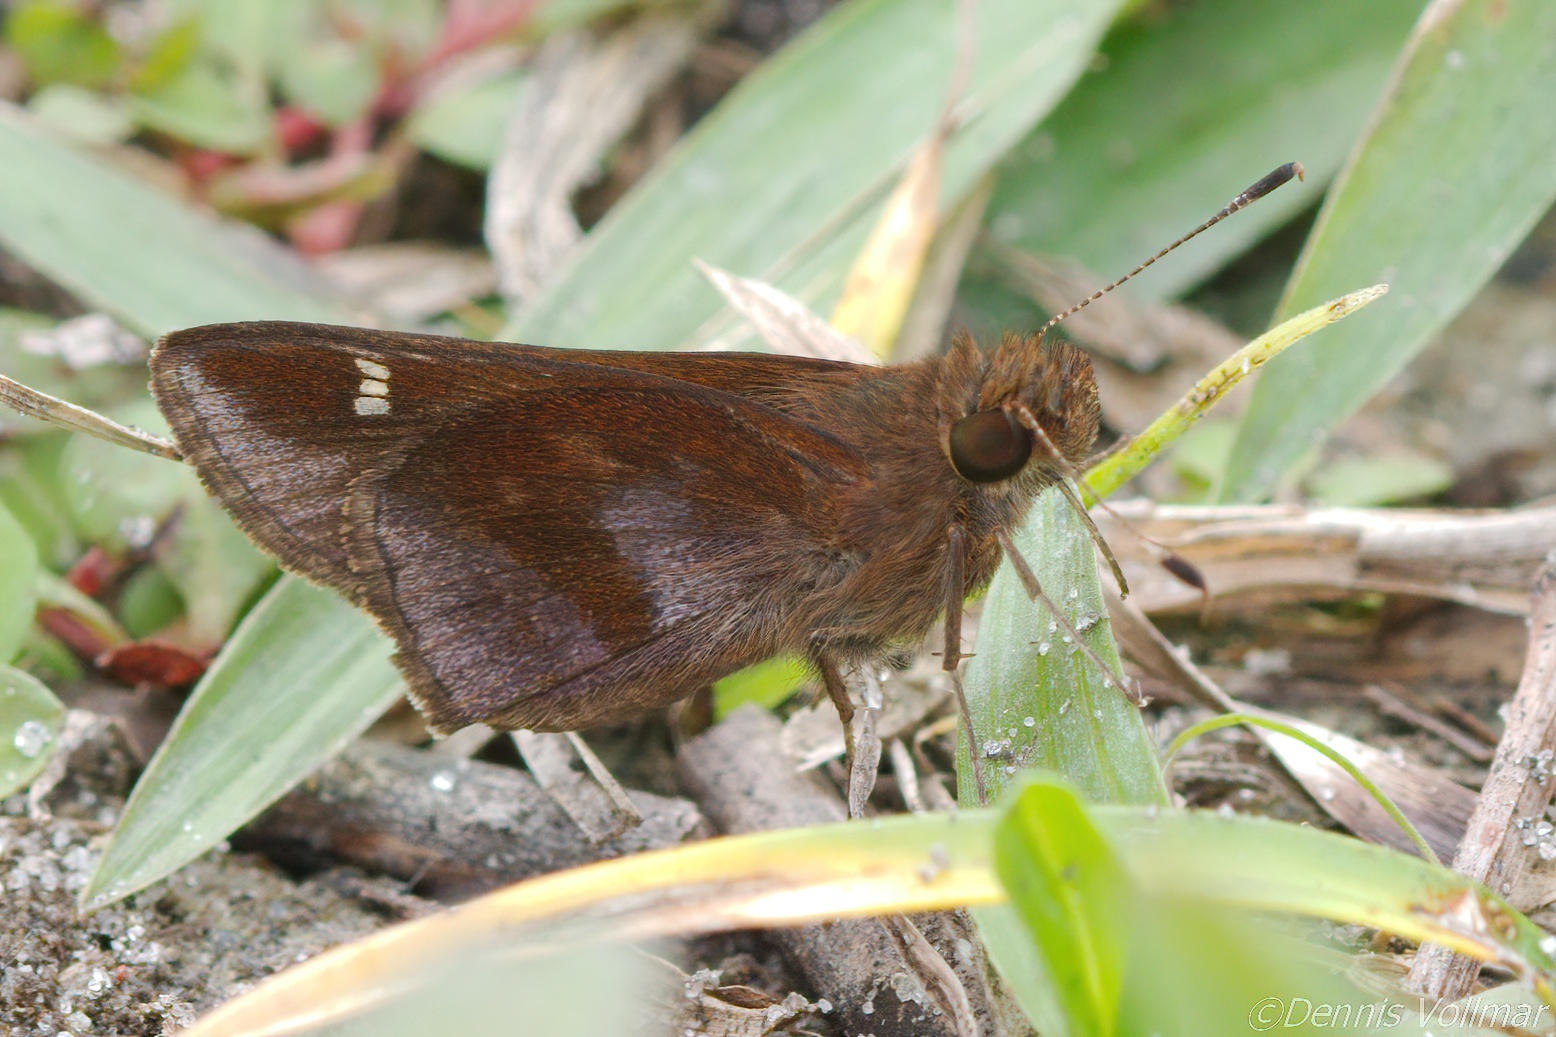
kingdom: Animalia
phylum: Arthropoda
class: Insecta
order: Lepidoptera
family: Hesperiidae
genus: Lerema
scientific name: Lerema accius
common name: Clouded skipper
